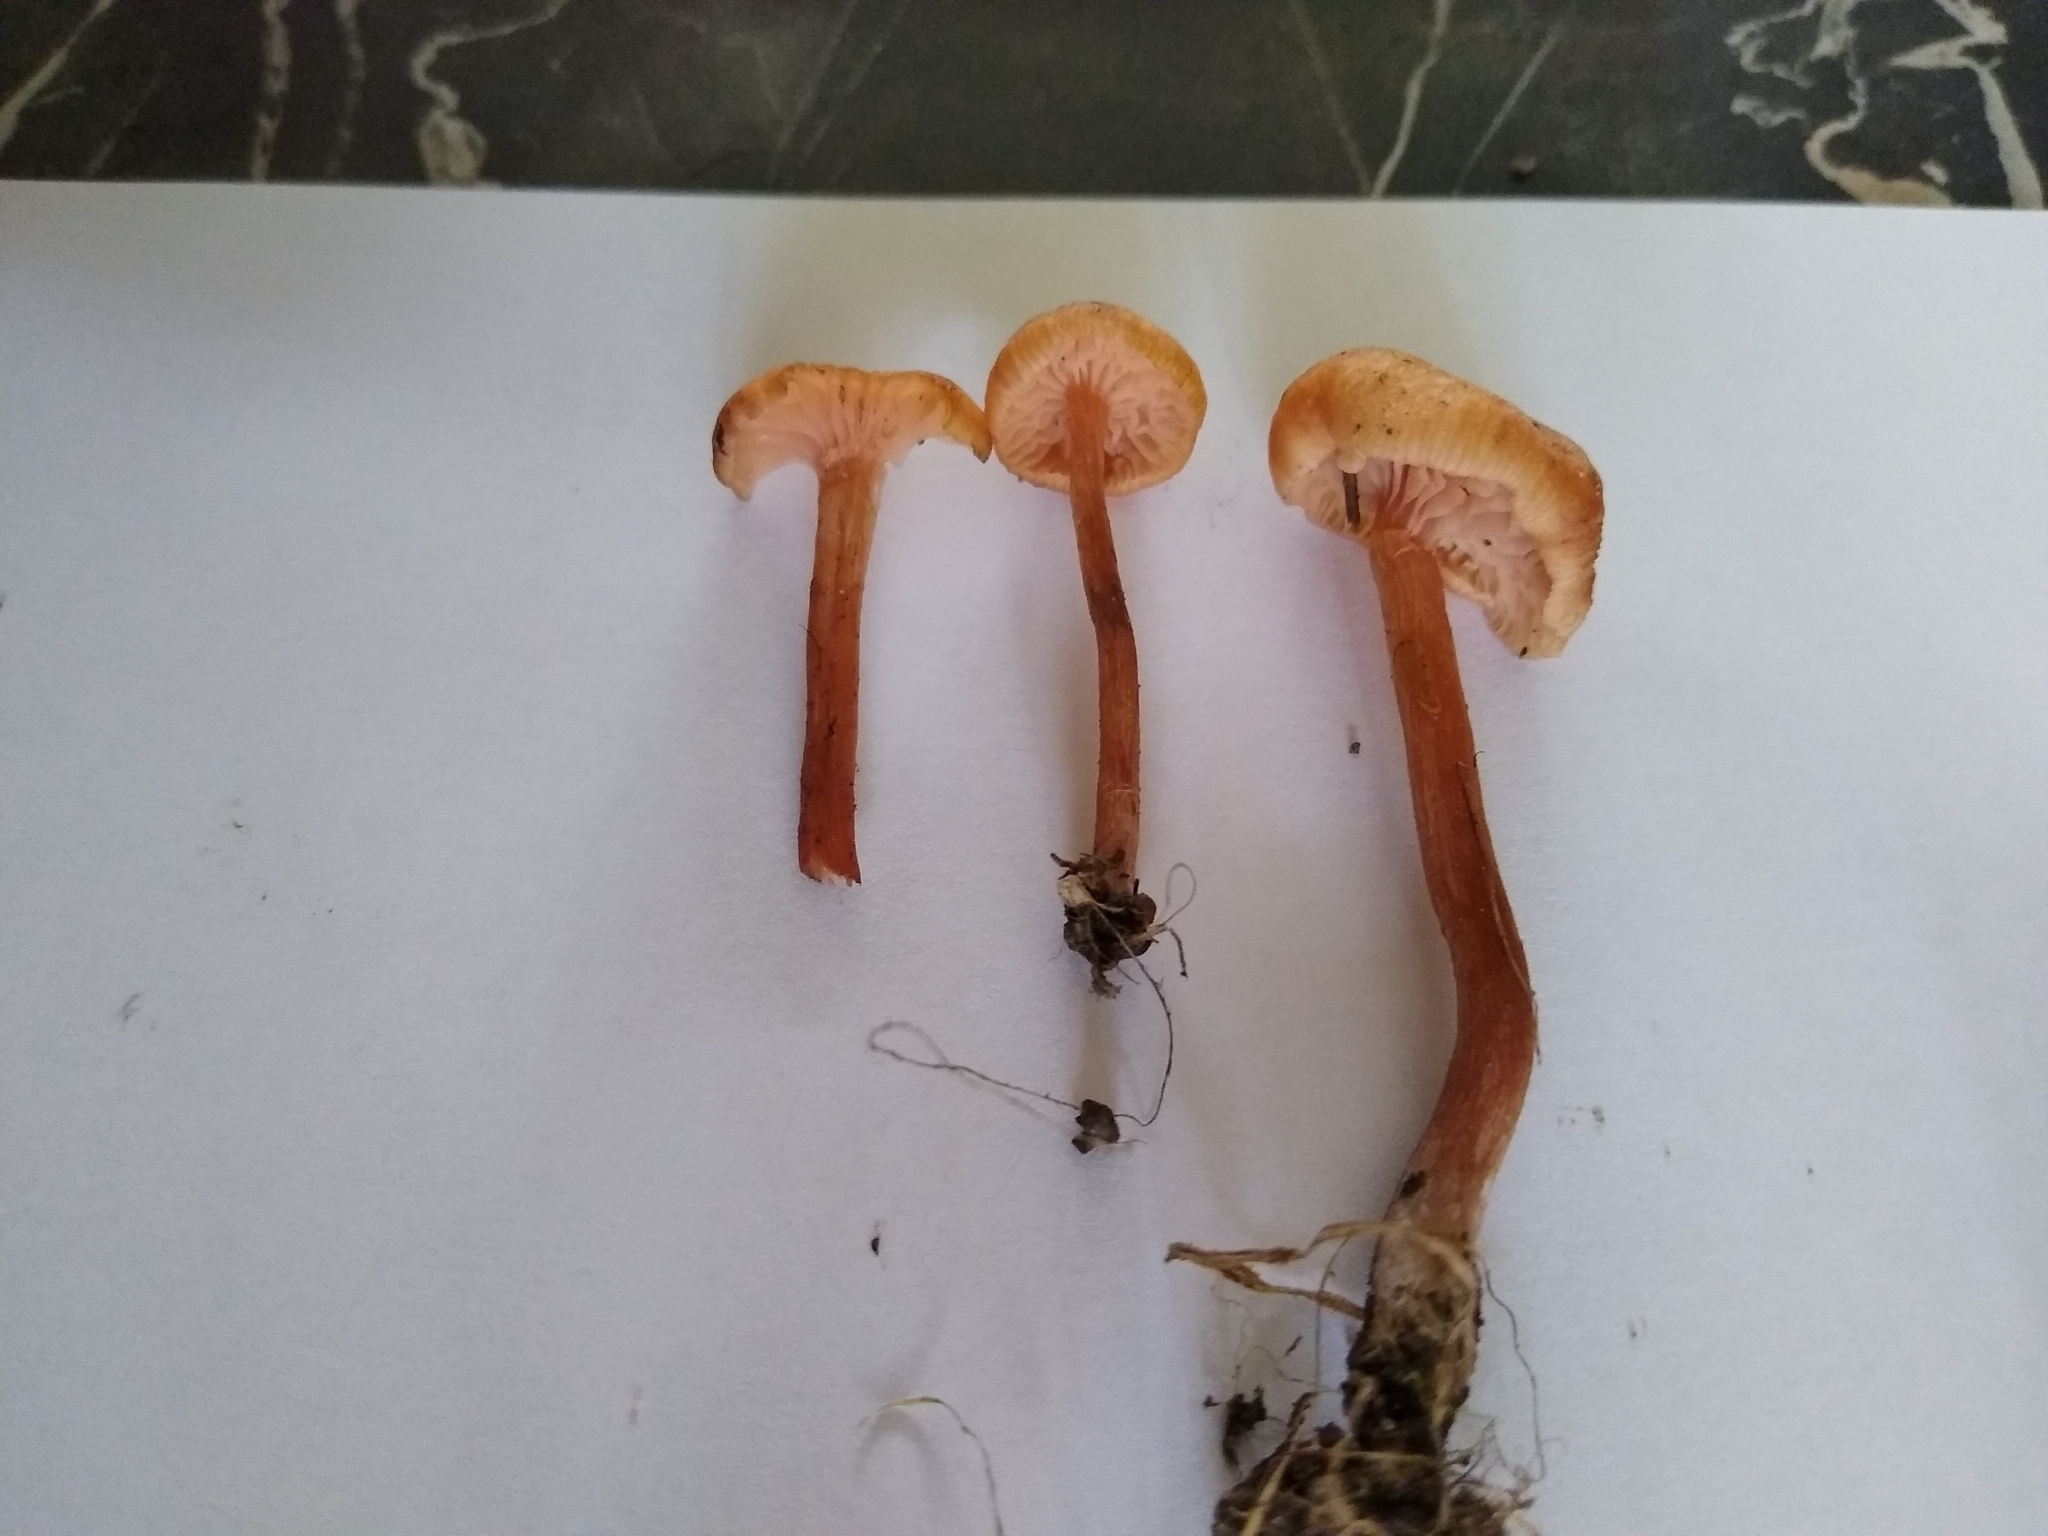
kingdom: Fungi
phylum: Basidiomycota
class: Agaricomycetes
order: Agaricales
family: Hydnangiaceae
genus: Laccaria
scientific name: Laccaria laccata
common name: Deceiver
